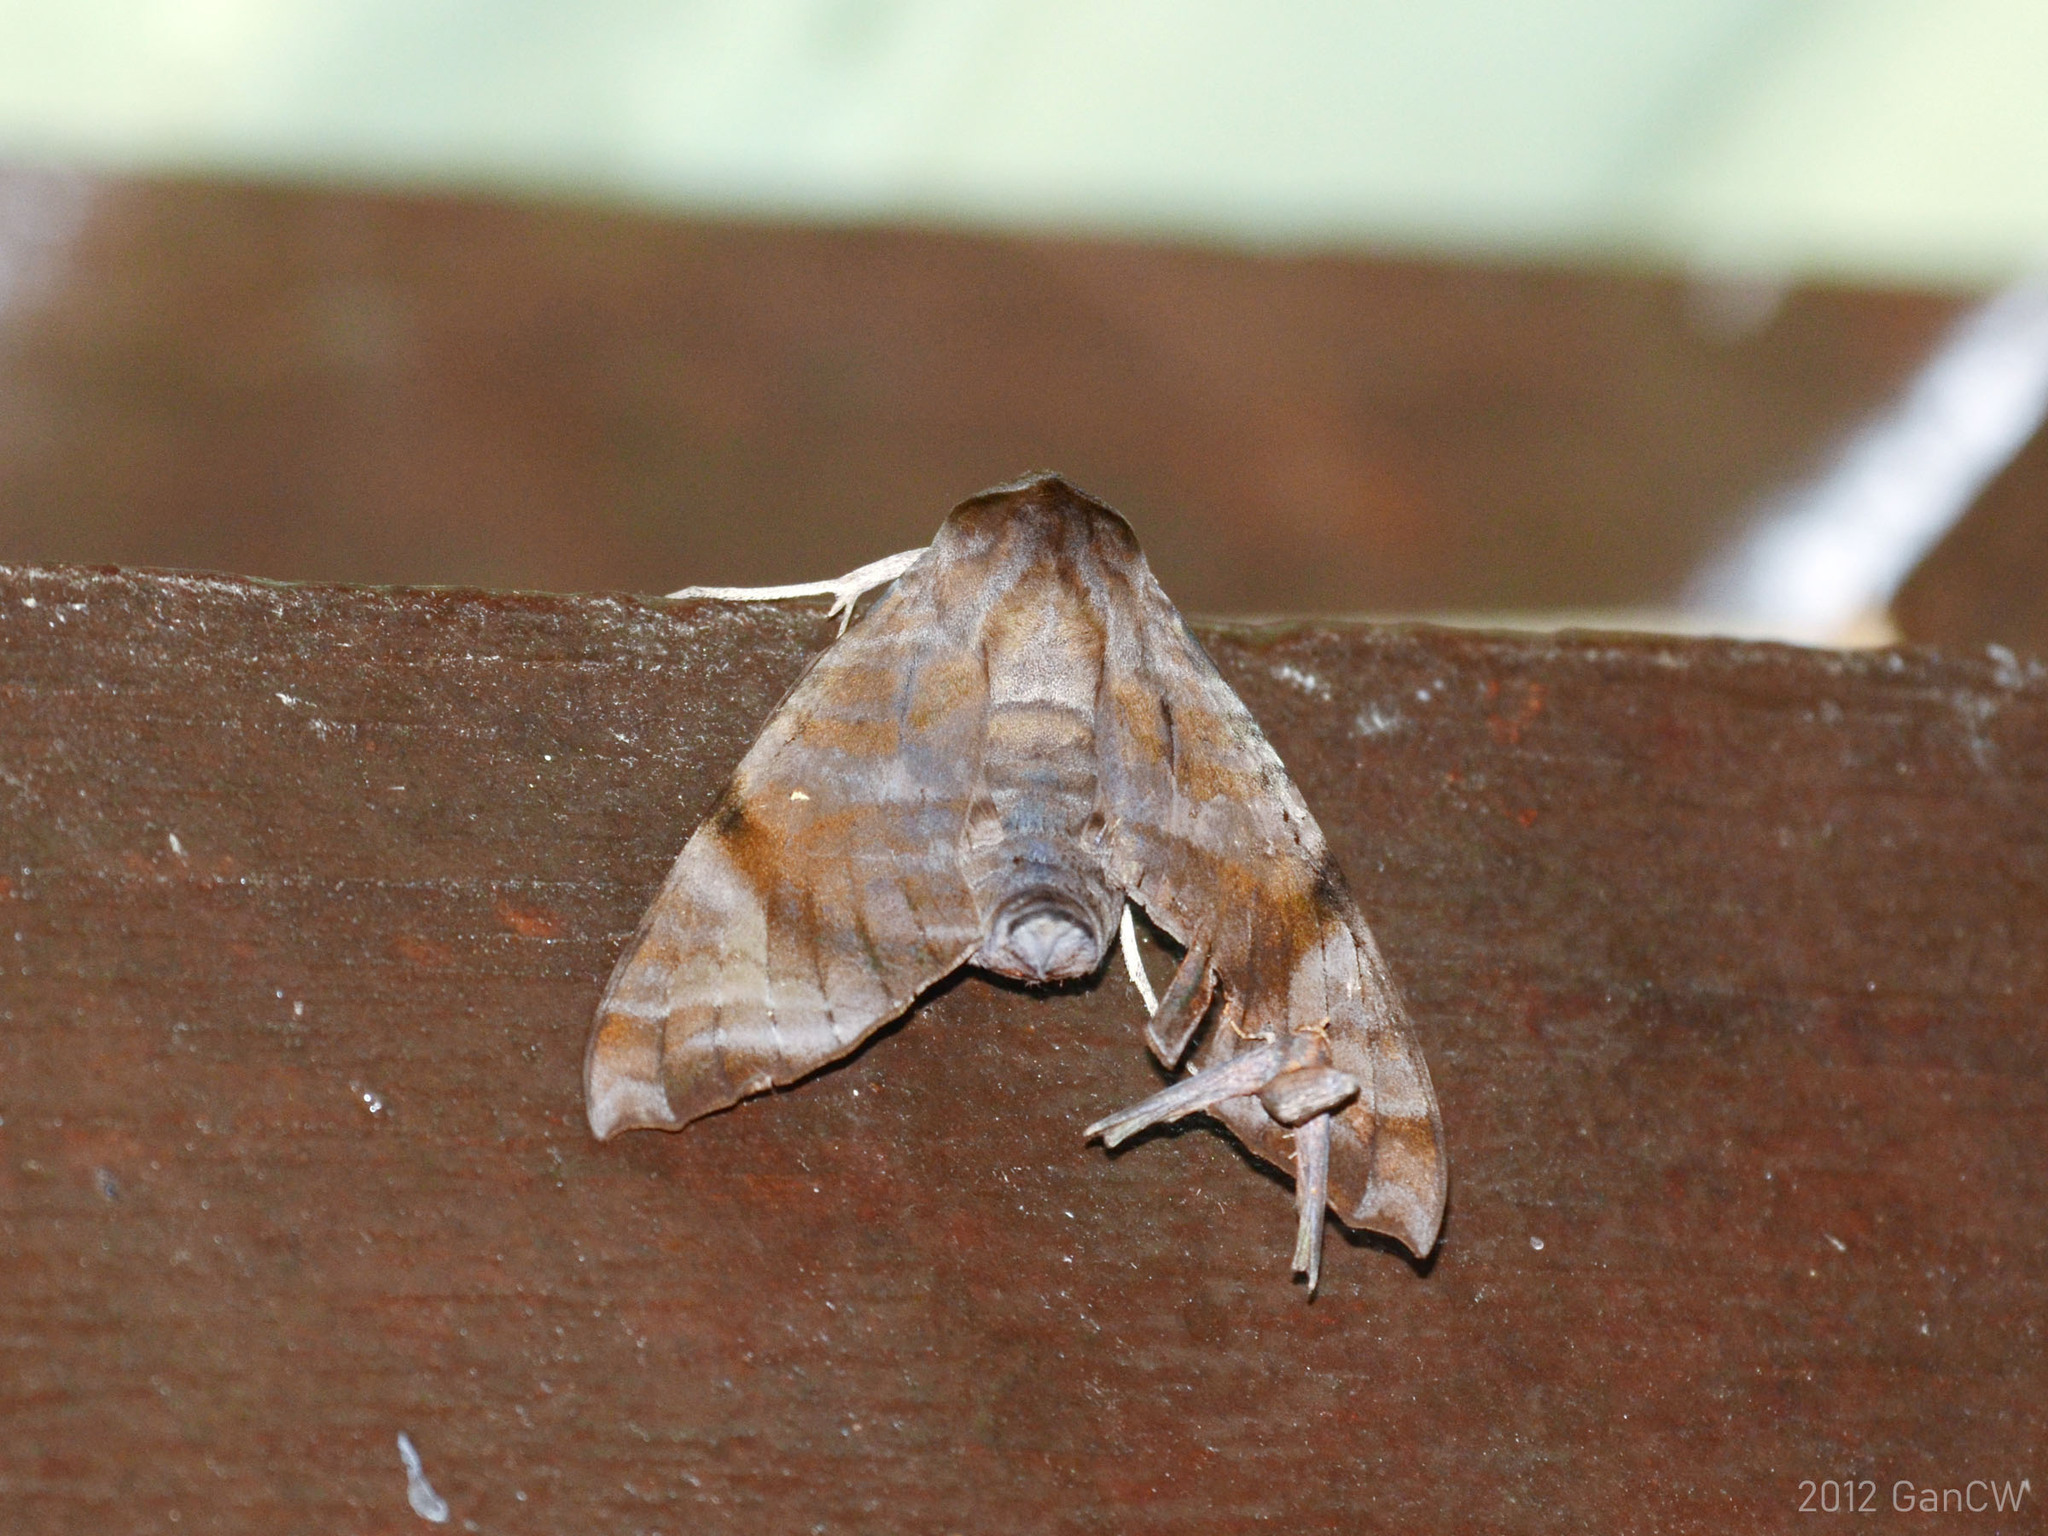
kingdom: Animalia
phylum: Arthropoda
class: Insecta
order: Lepidoptera
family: Sphingidae
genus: Acosmeryx
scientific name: Acosmeryx shervillii
